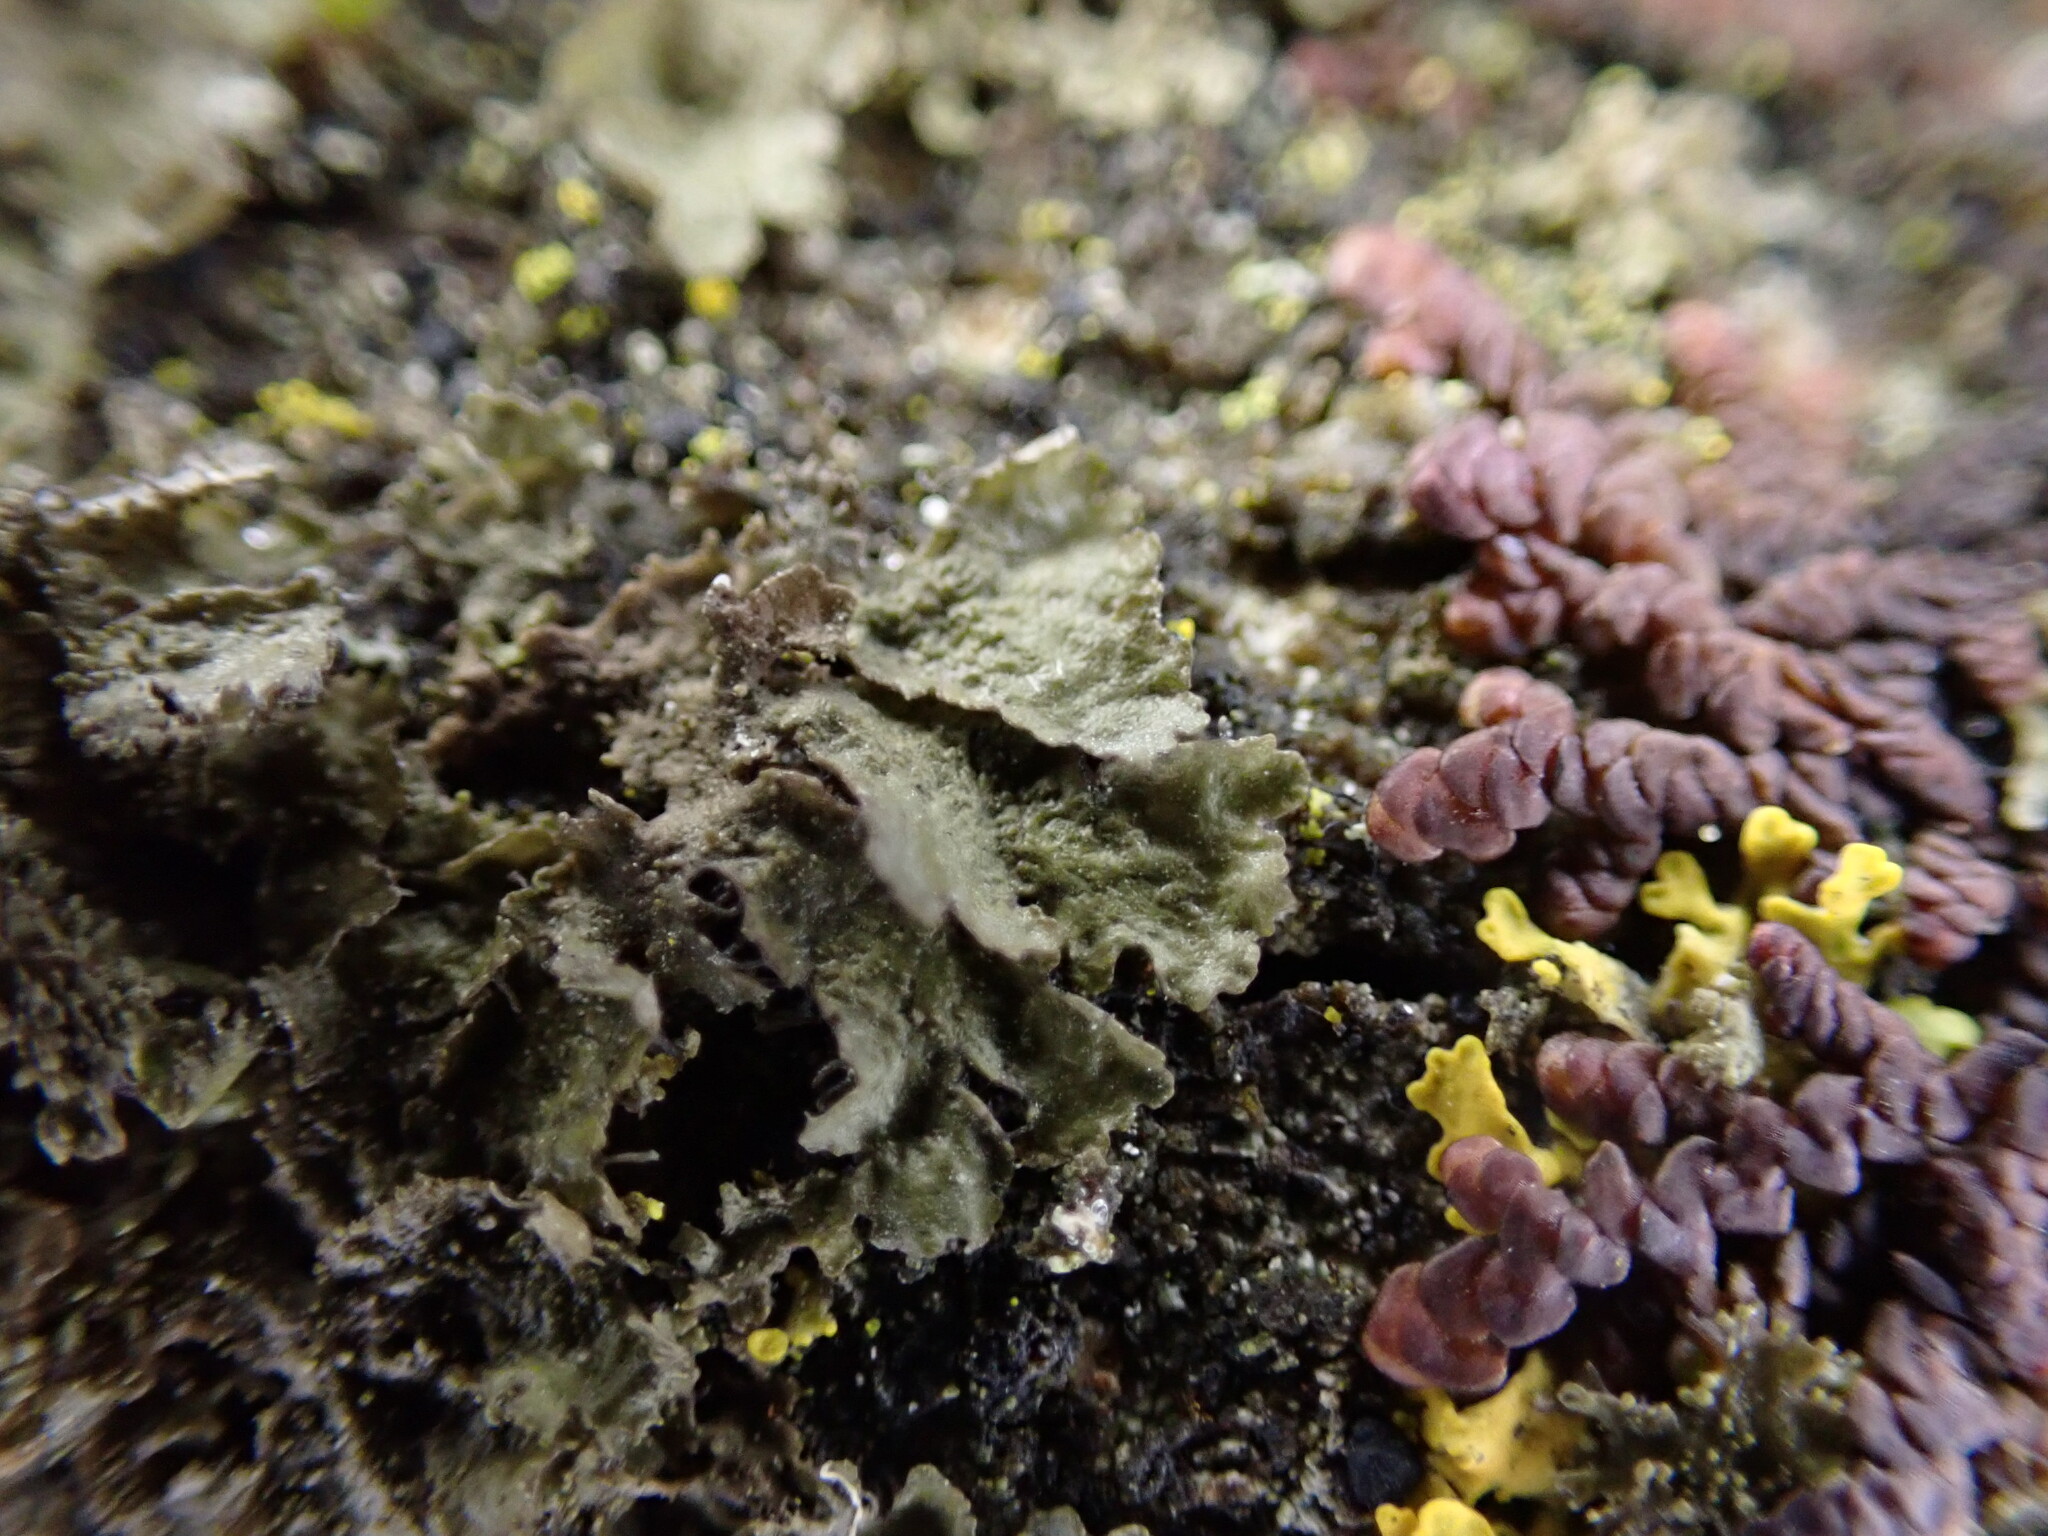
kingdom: Fungi
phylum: Ascomycota
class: Lecanoromycetes
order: Lecanorales
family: Parmeliaceae
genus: Melanohalea
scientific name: Melanohalea exasperatula
